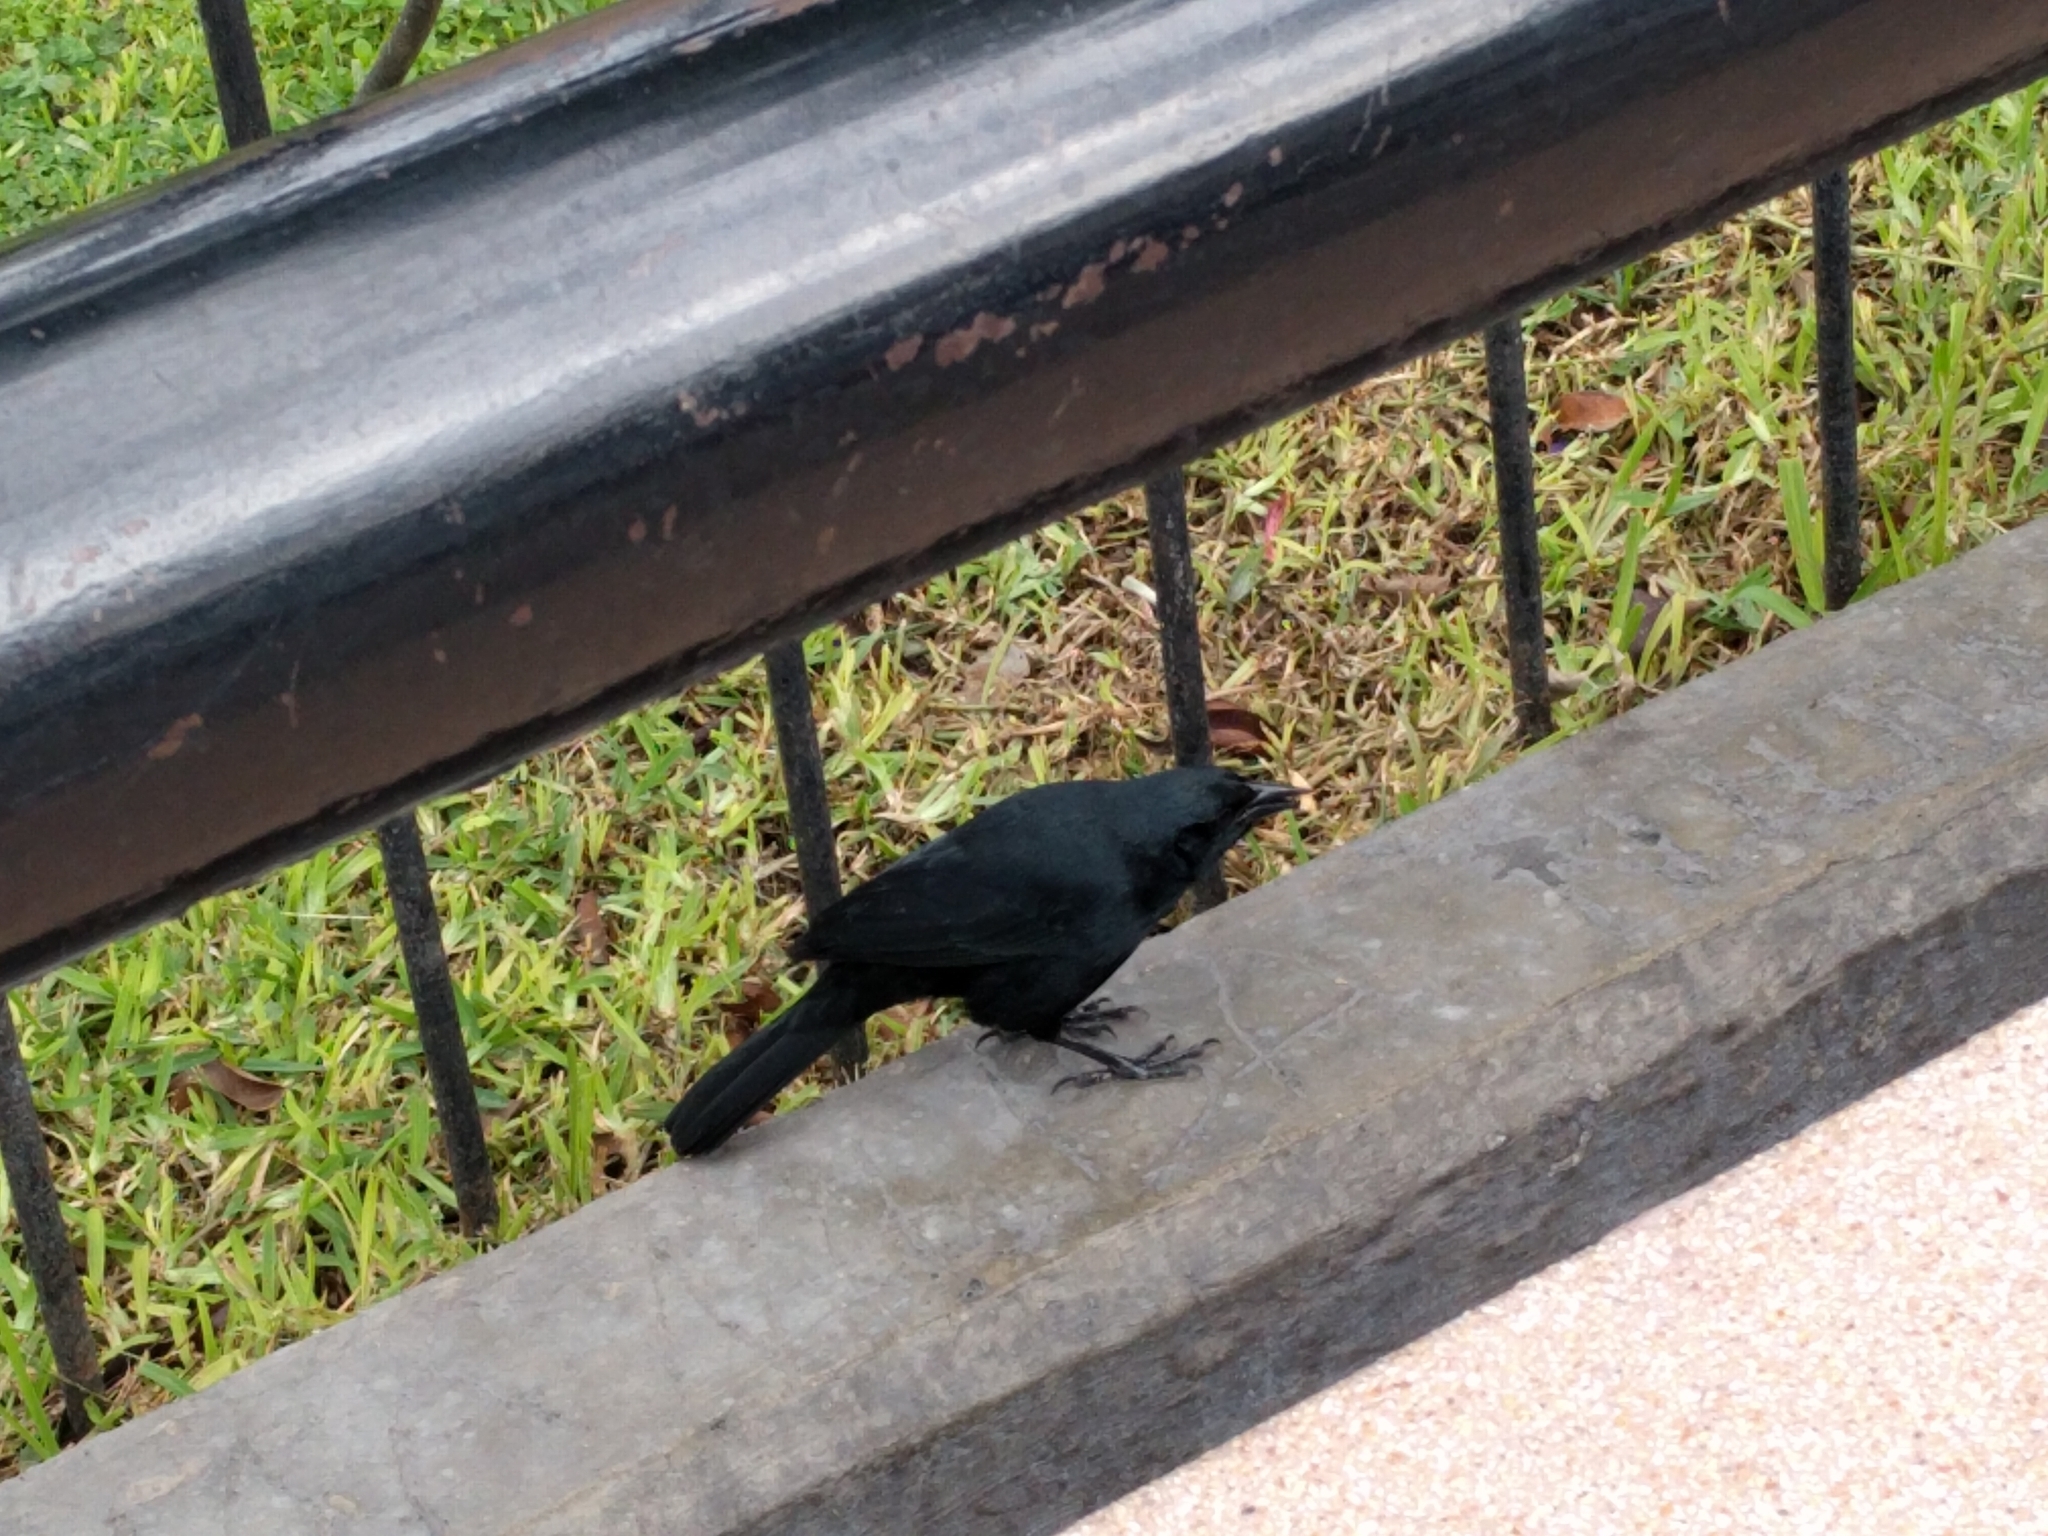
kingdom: Animalia
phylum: Chordata
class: Aves
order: Passeriformes
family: Icteridae
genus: Dives
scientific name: Dives warczewiczi
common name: Scrub blackbird
